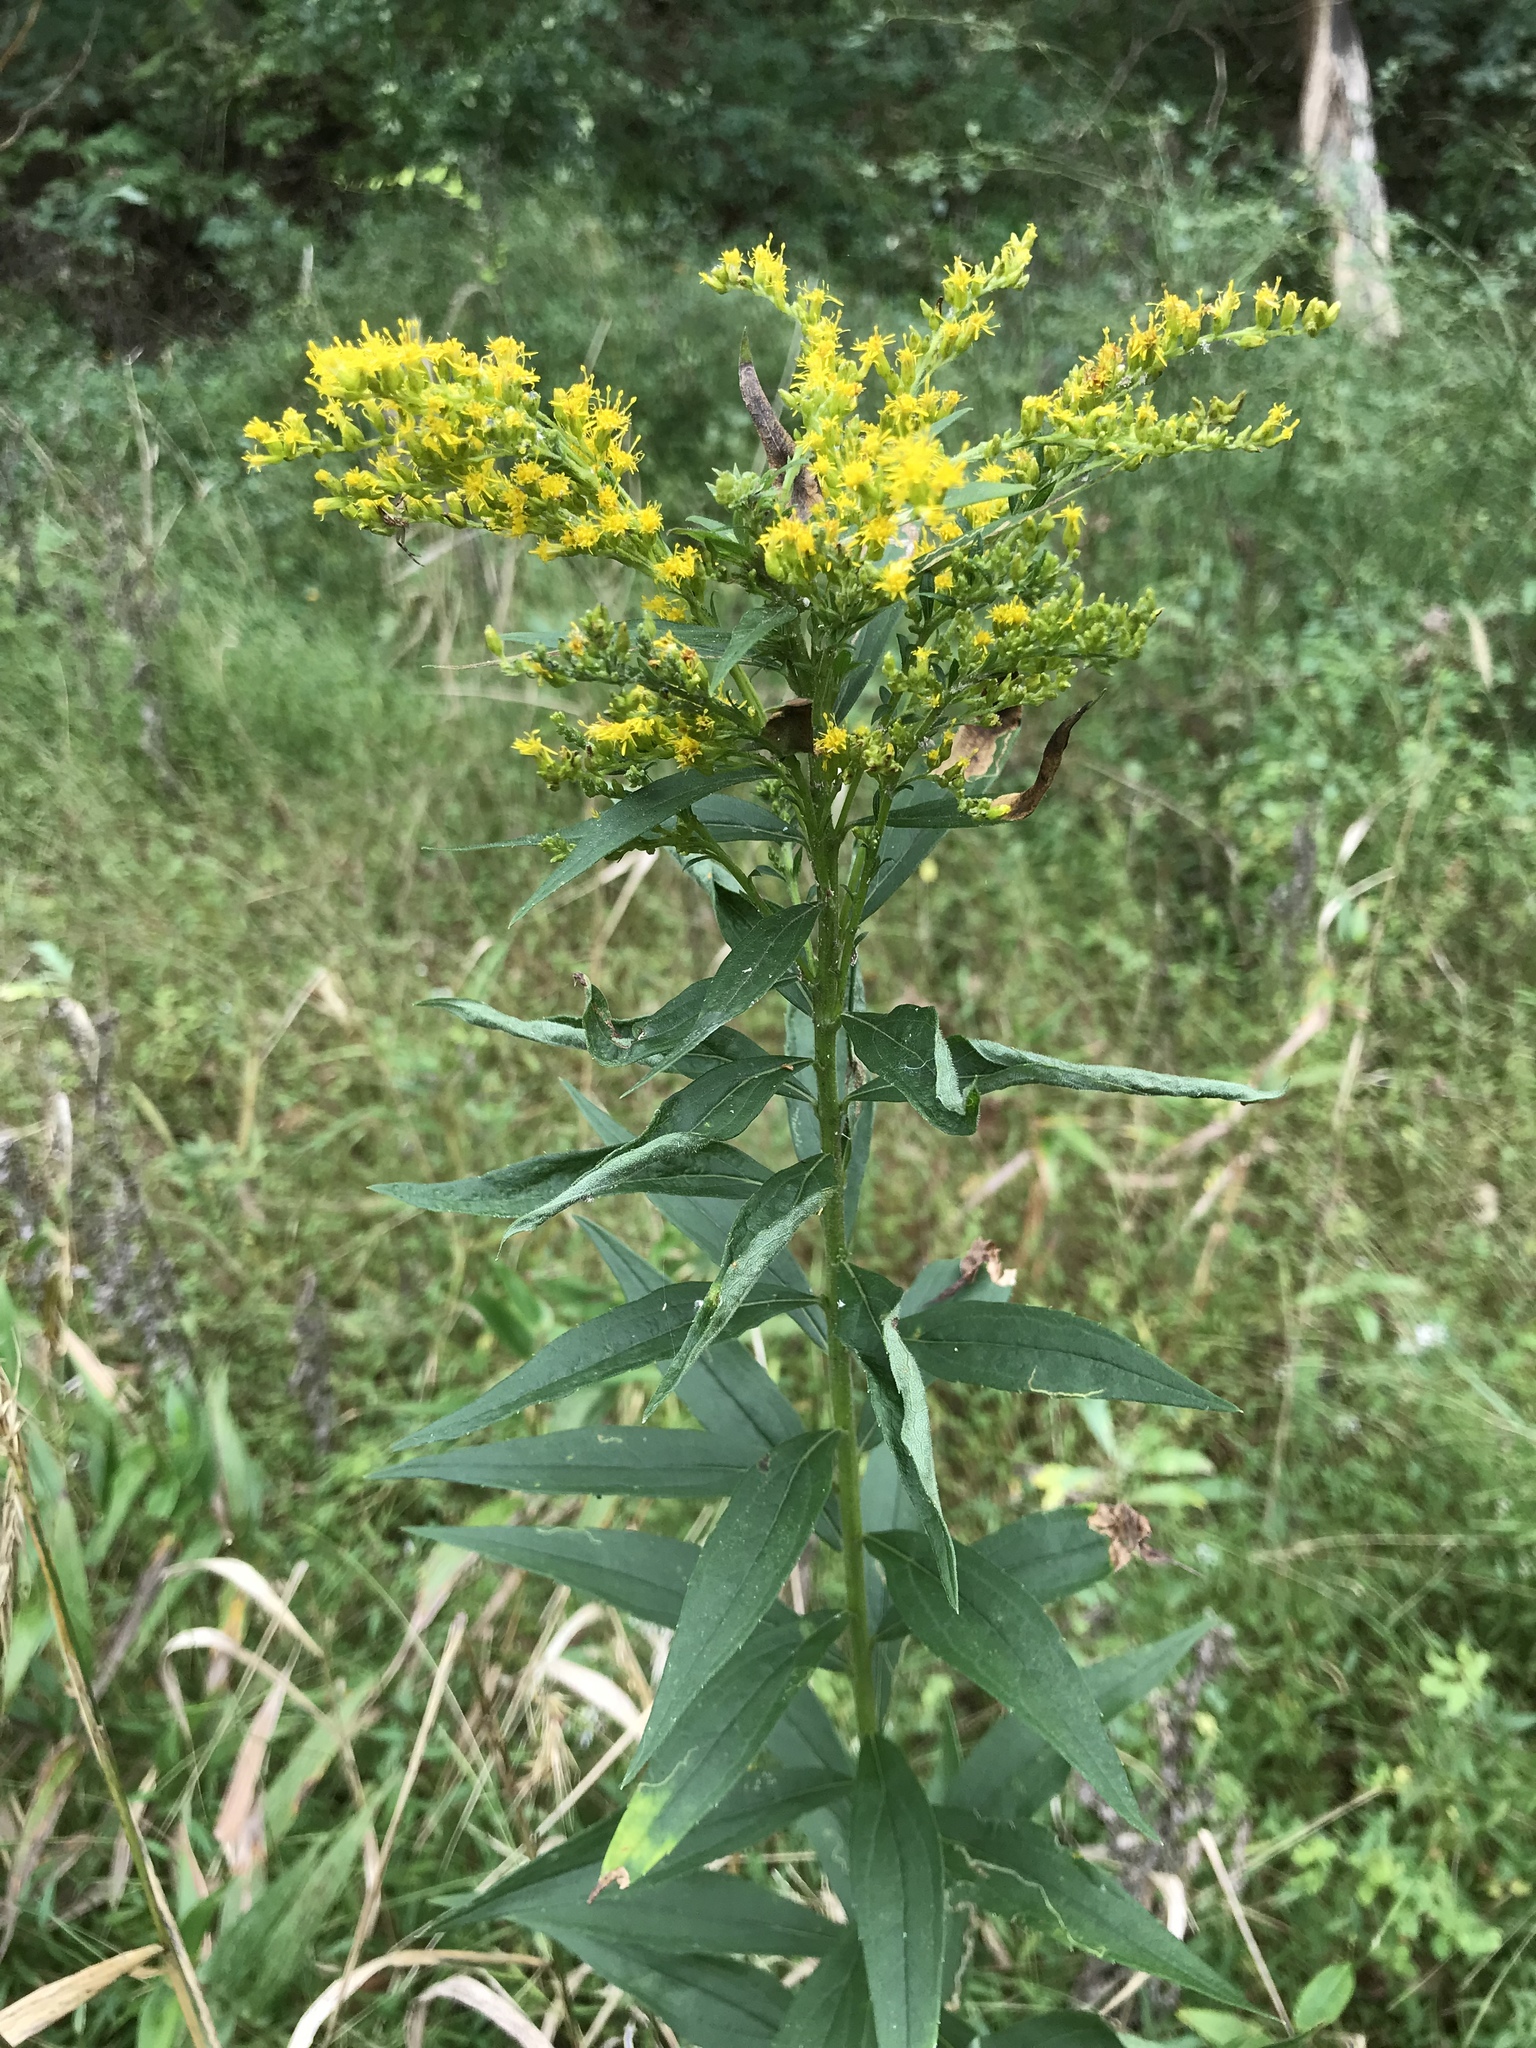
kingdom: Plantae
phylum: Tracheophyta
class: Magnoliopsida
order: Asterales
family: Asteraceae
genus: Solidago
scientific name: Solidago canadensis
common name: Canada goldenrod
